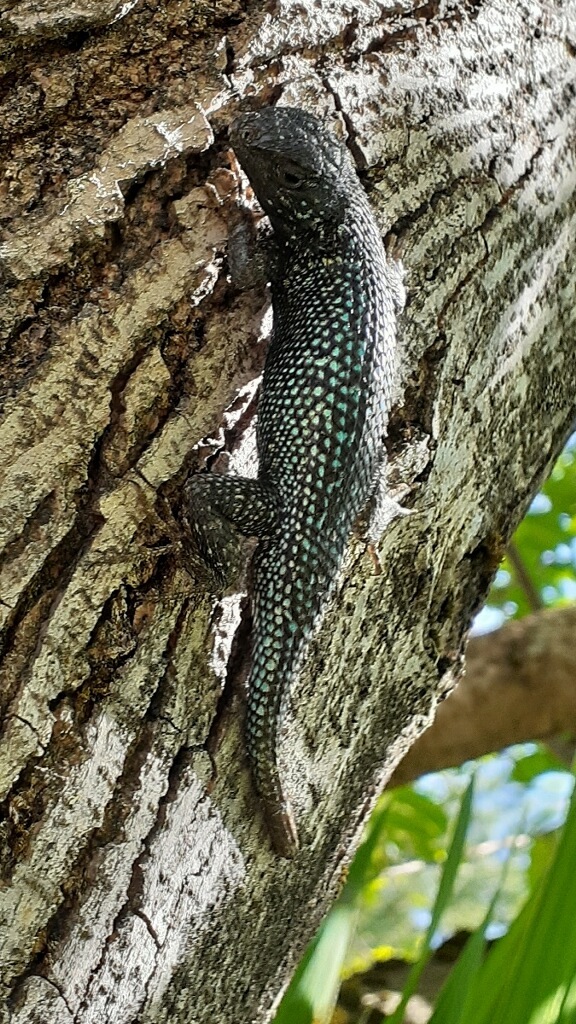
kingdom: Animalia
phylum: Chordata
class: Squamata
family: Phrynosomatidae
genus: Sceloporus
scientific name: Sceloporus occidentalis
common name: Western fence lizard
